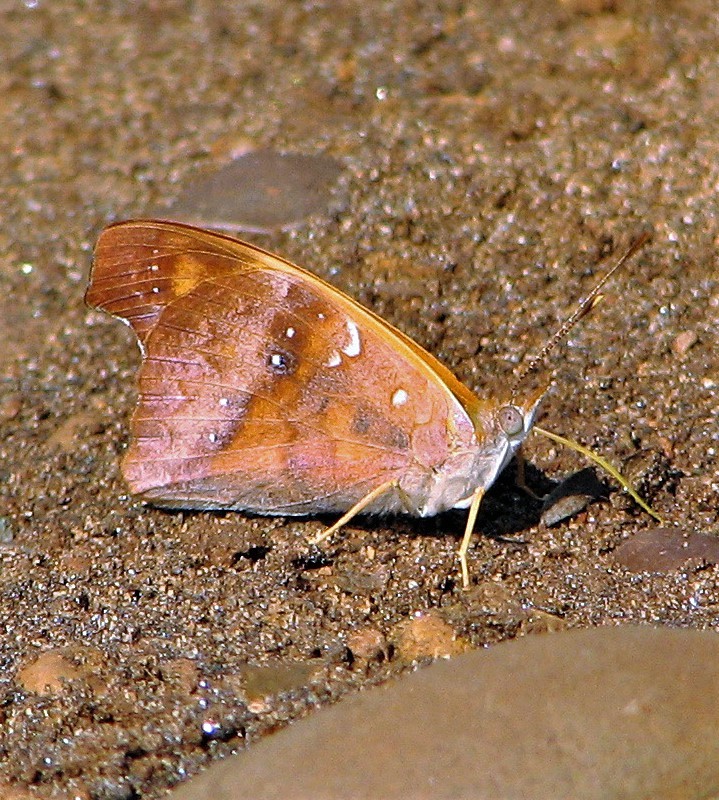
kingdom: Animalia
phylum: Arthropoda
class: Insecta
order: Lepidoptera
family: Nymphalidae
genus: Temenis
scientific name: Temenis laothoe
